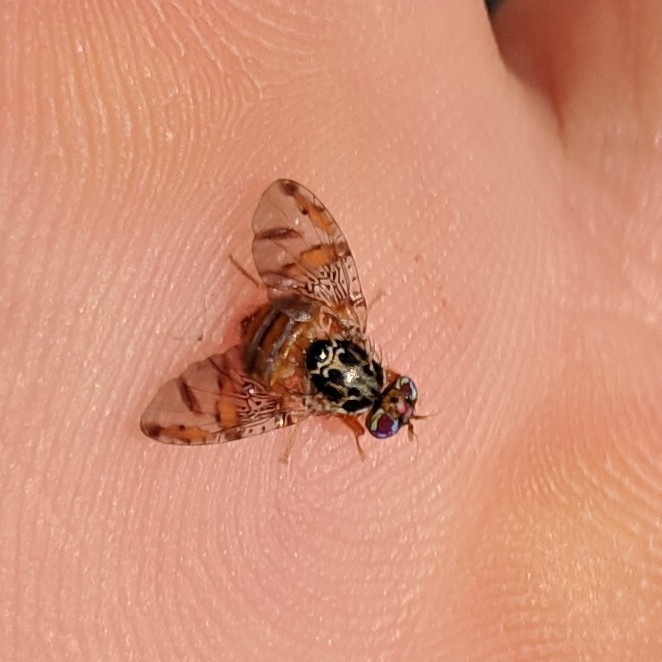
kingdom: Animalia
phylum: Arthropoda
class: Insecta
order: Diptera
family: Tephritidae
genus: Ceratitis
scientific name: Ceratitis capitata
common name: Mediterranean fruit fly
